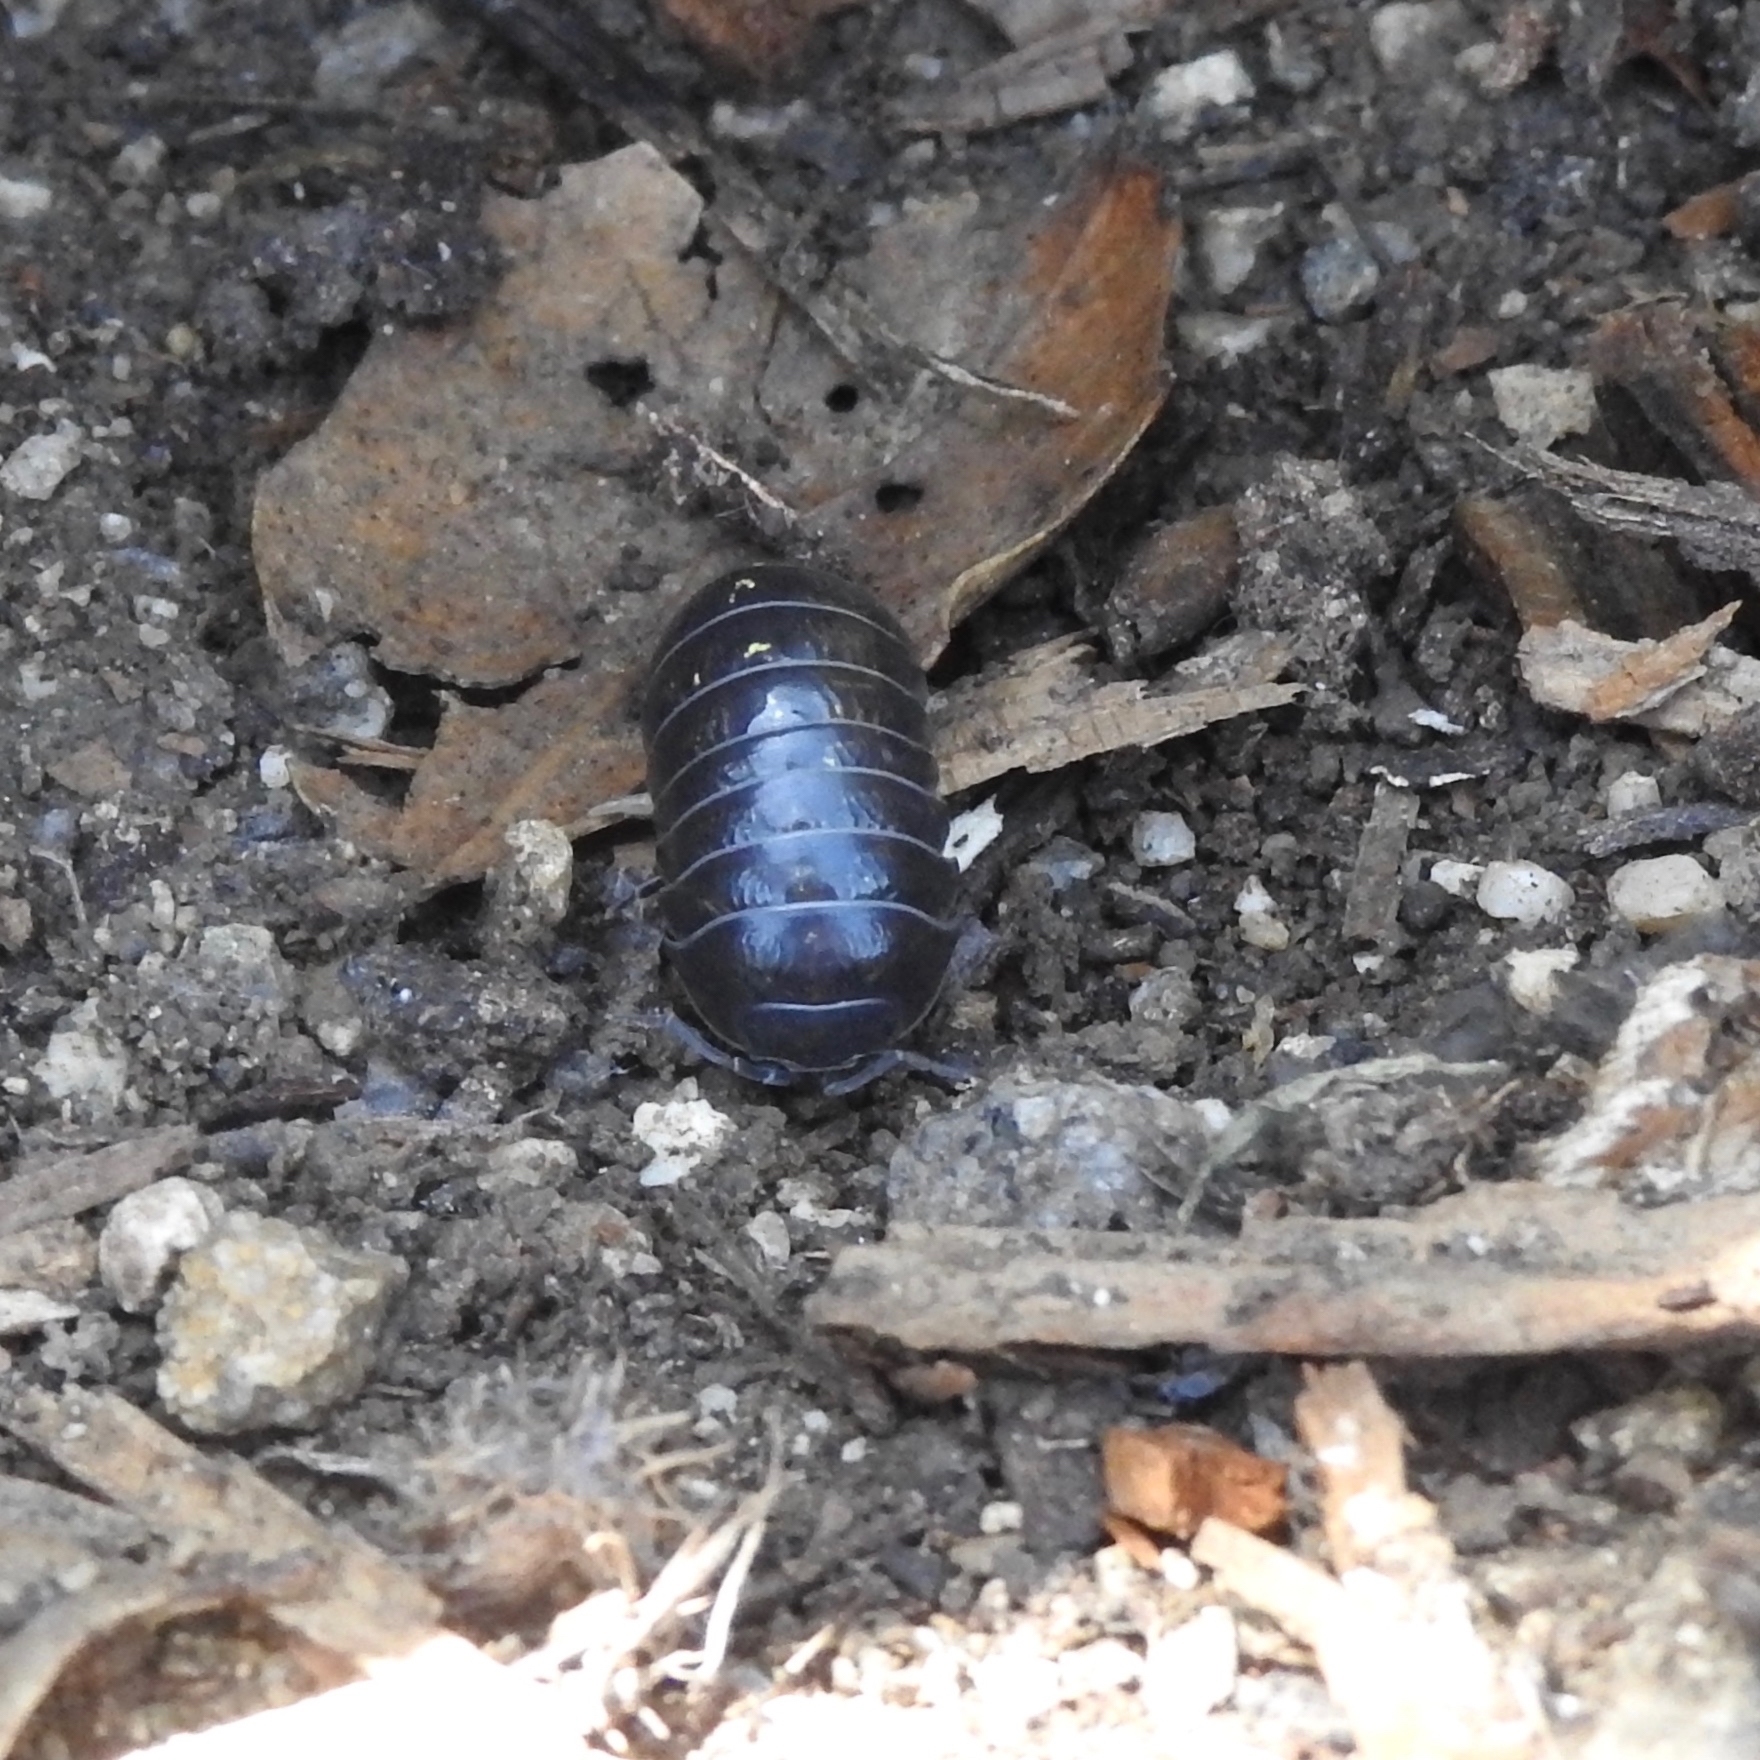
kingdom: Animalia
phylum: Arthropoda
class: Malacostraca
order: Isopoda
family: Armadillidiidae
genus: Armadillidium
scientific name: Armadillidium vulgare
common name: Common pill woodlouse
